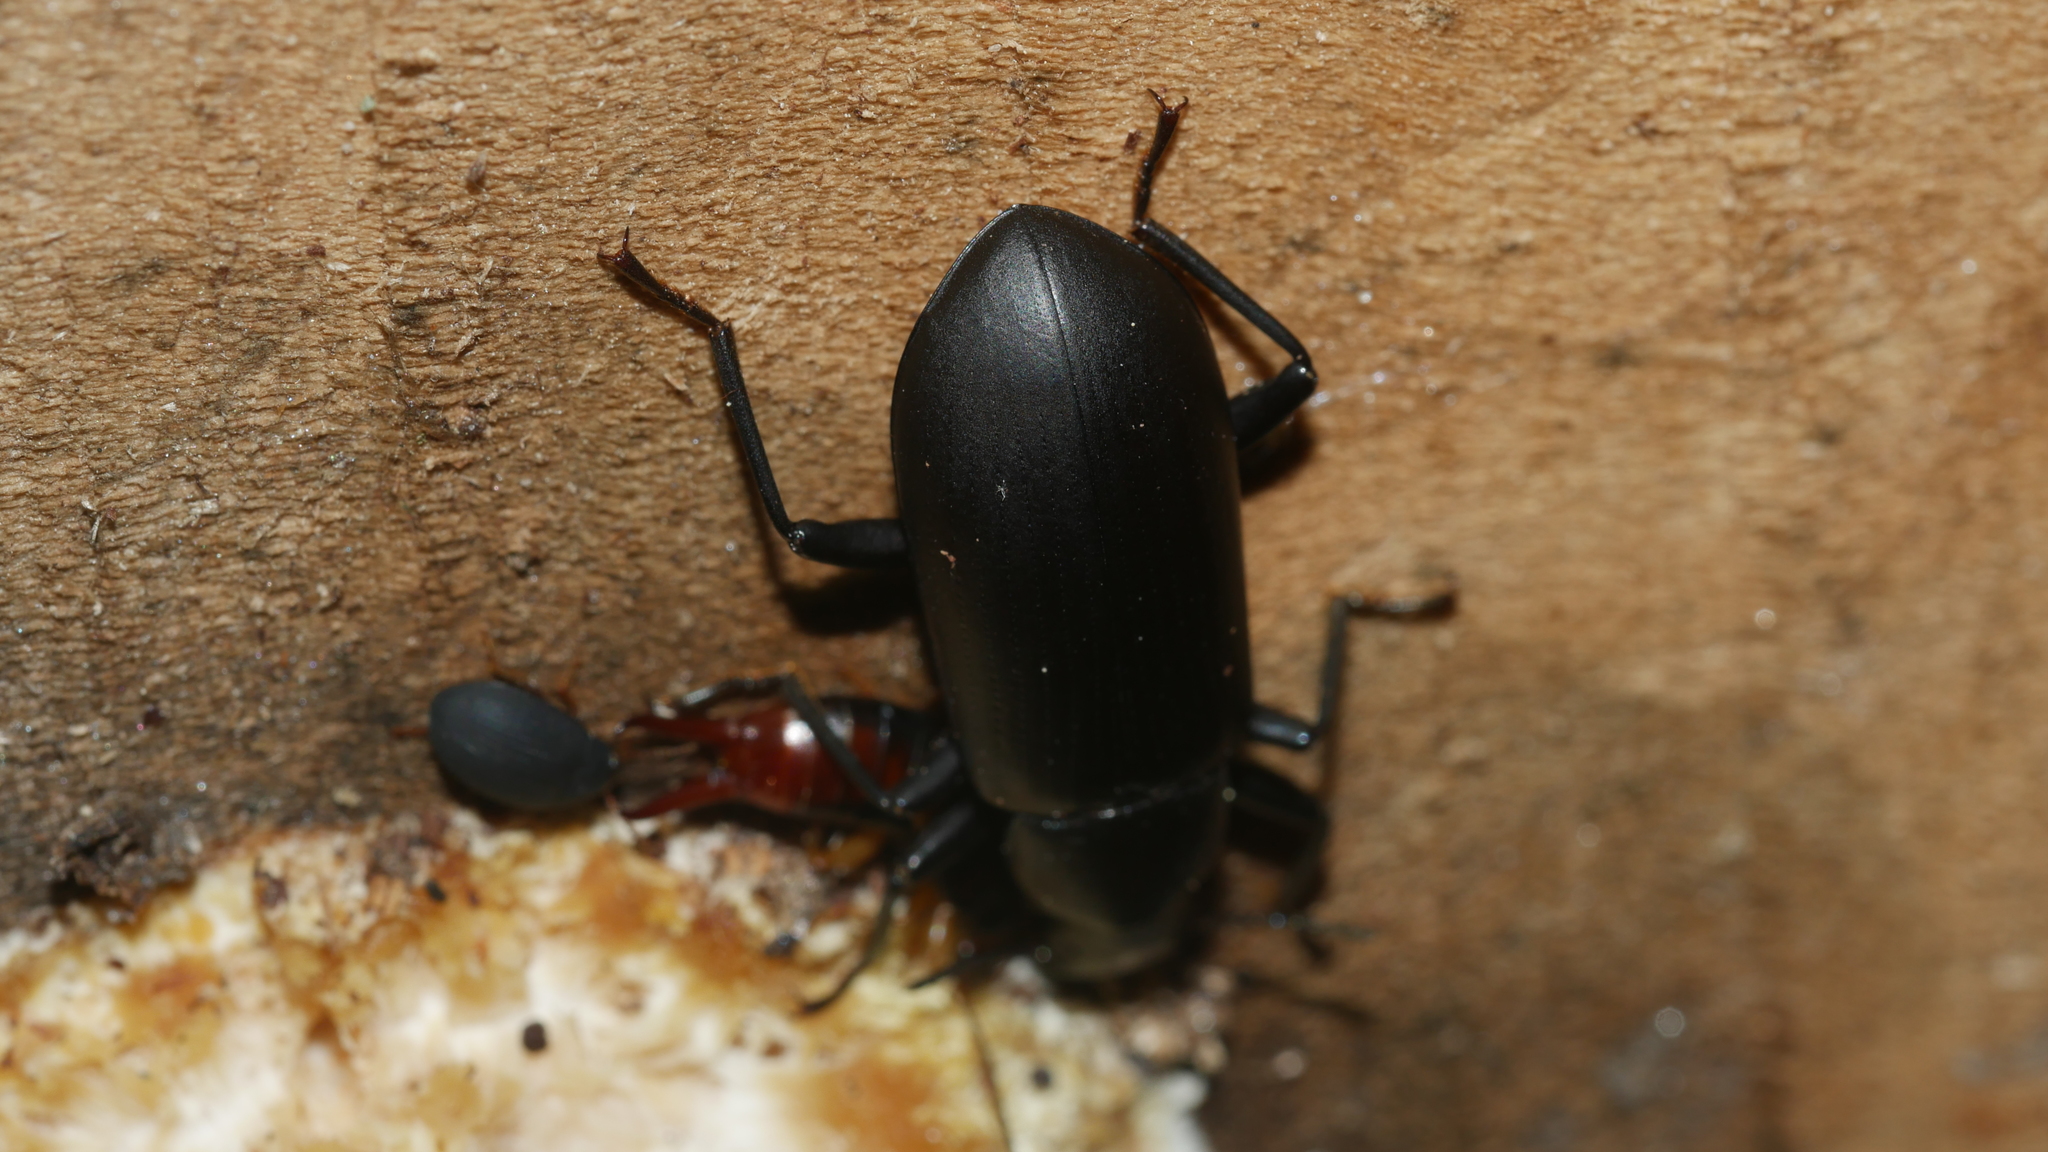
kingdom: Animalia
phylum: Arthropoda
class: Insecta
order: Coleoptera
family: Tenebrionidae
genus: Alobates
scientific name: Alobates
